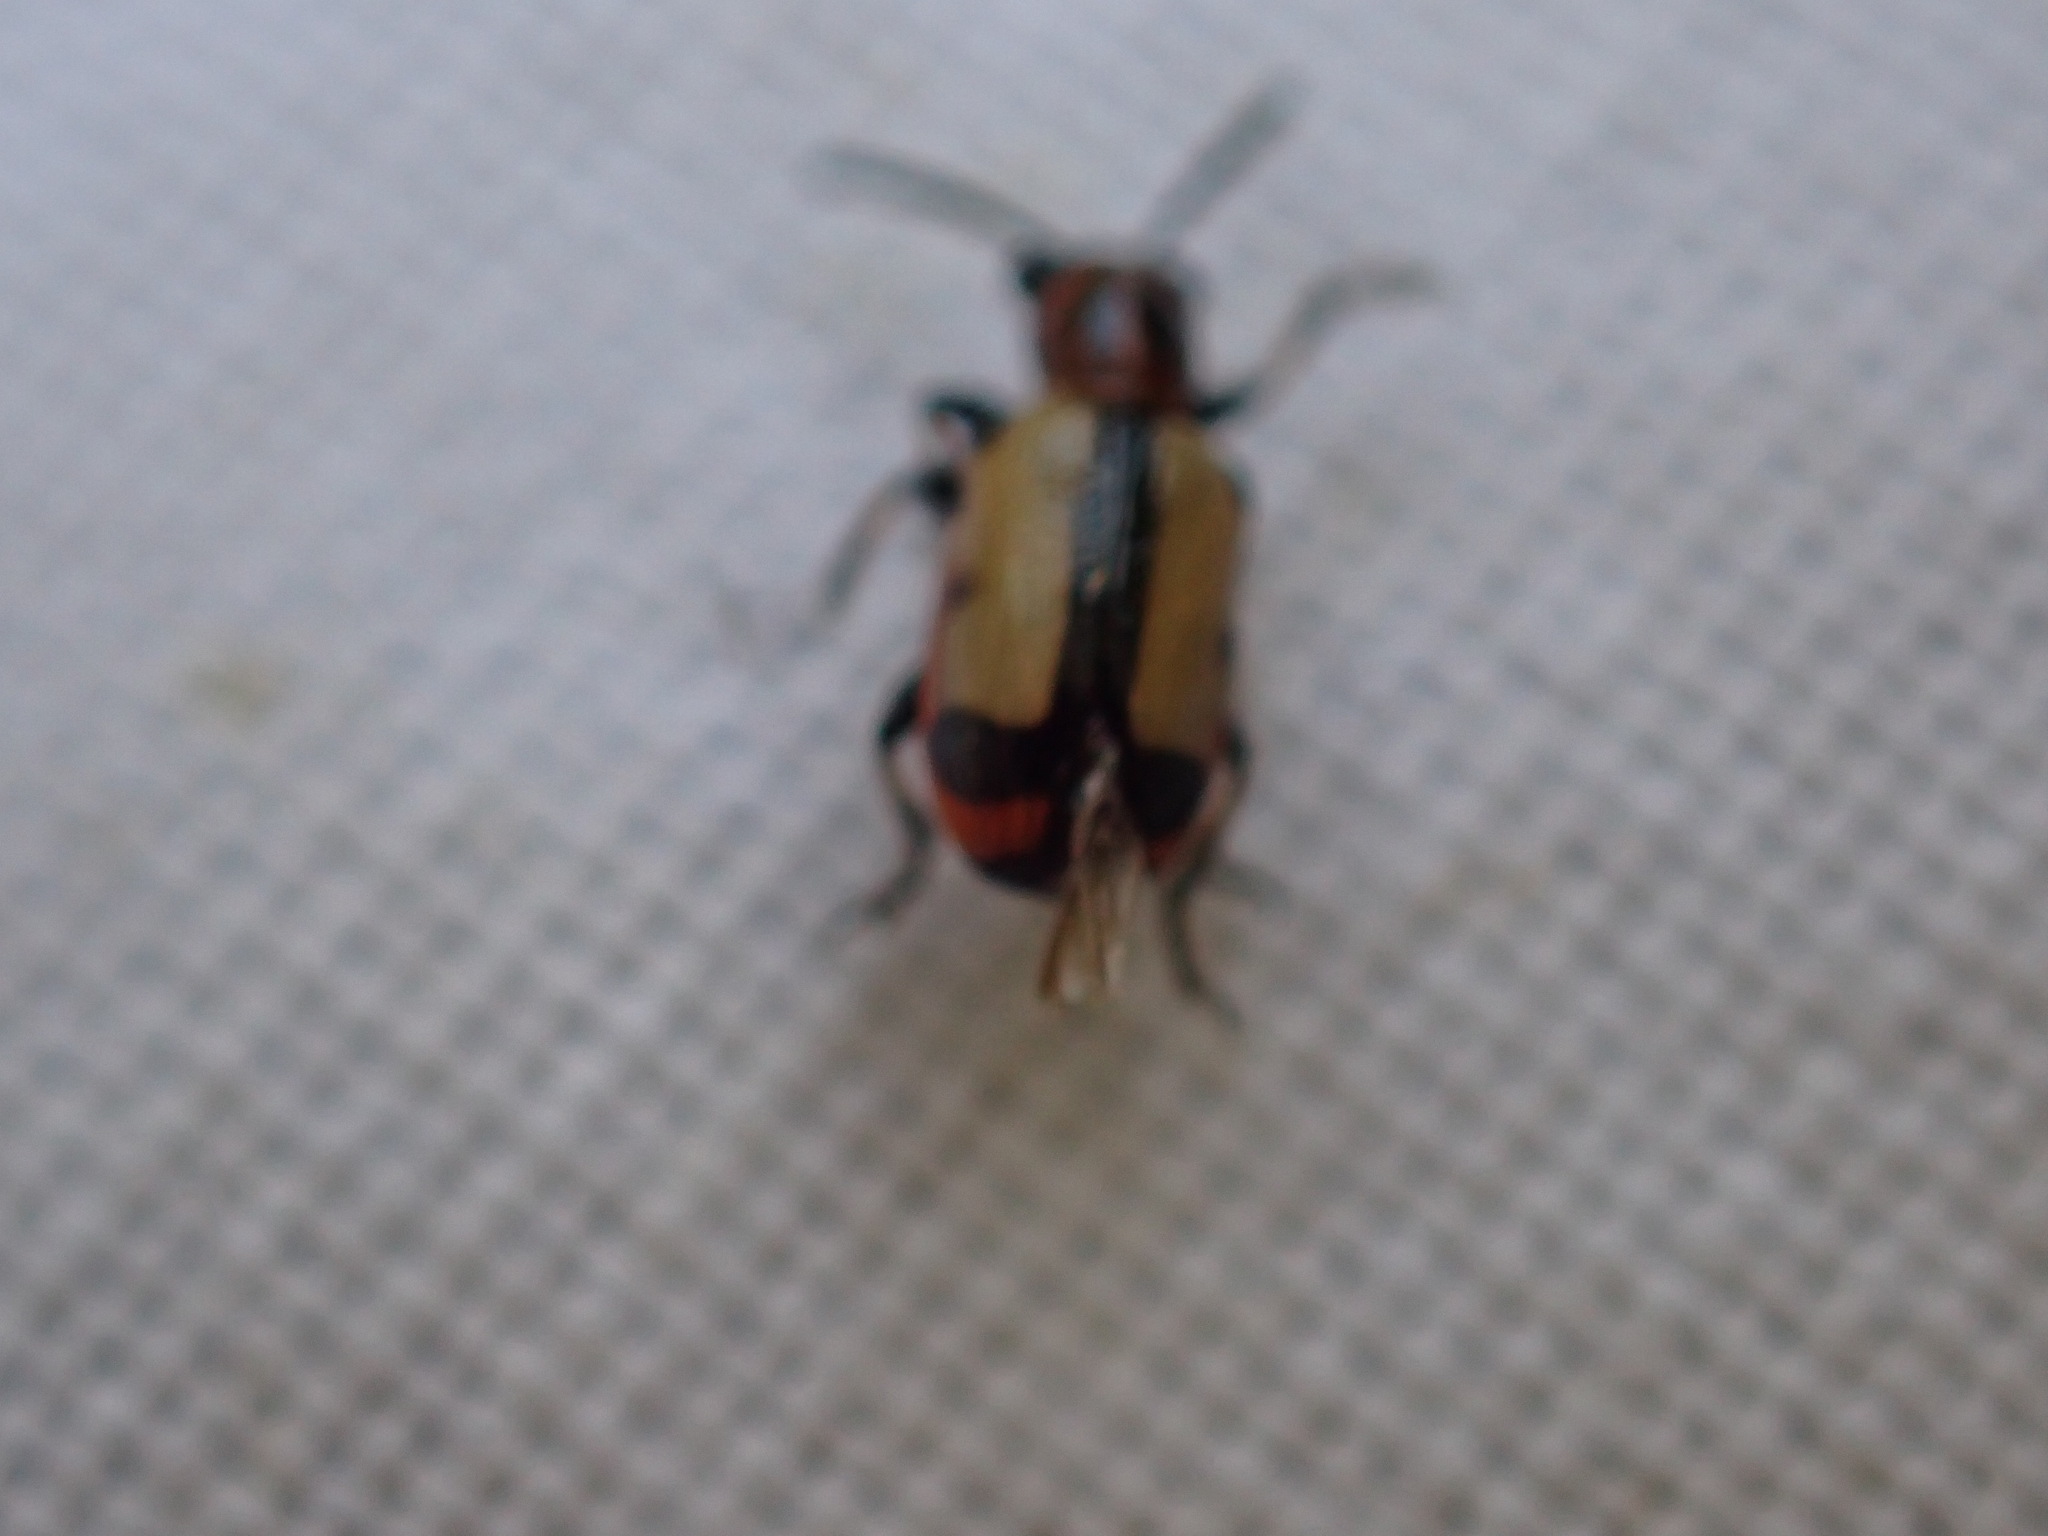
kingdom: Animalia
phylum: Arthropoda
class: Insecta
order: Coleoptera
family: Chrysomelidae
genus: Crioceris
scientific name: Crioceris paracenthesis
